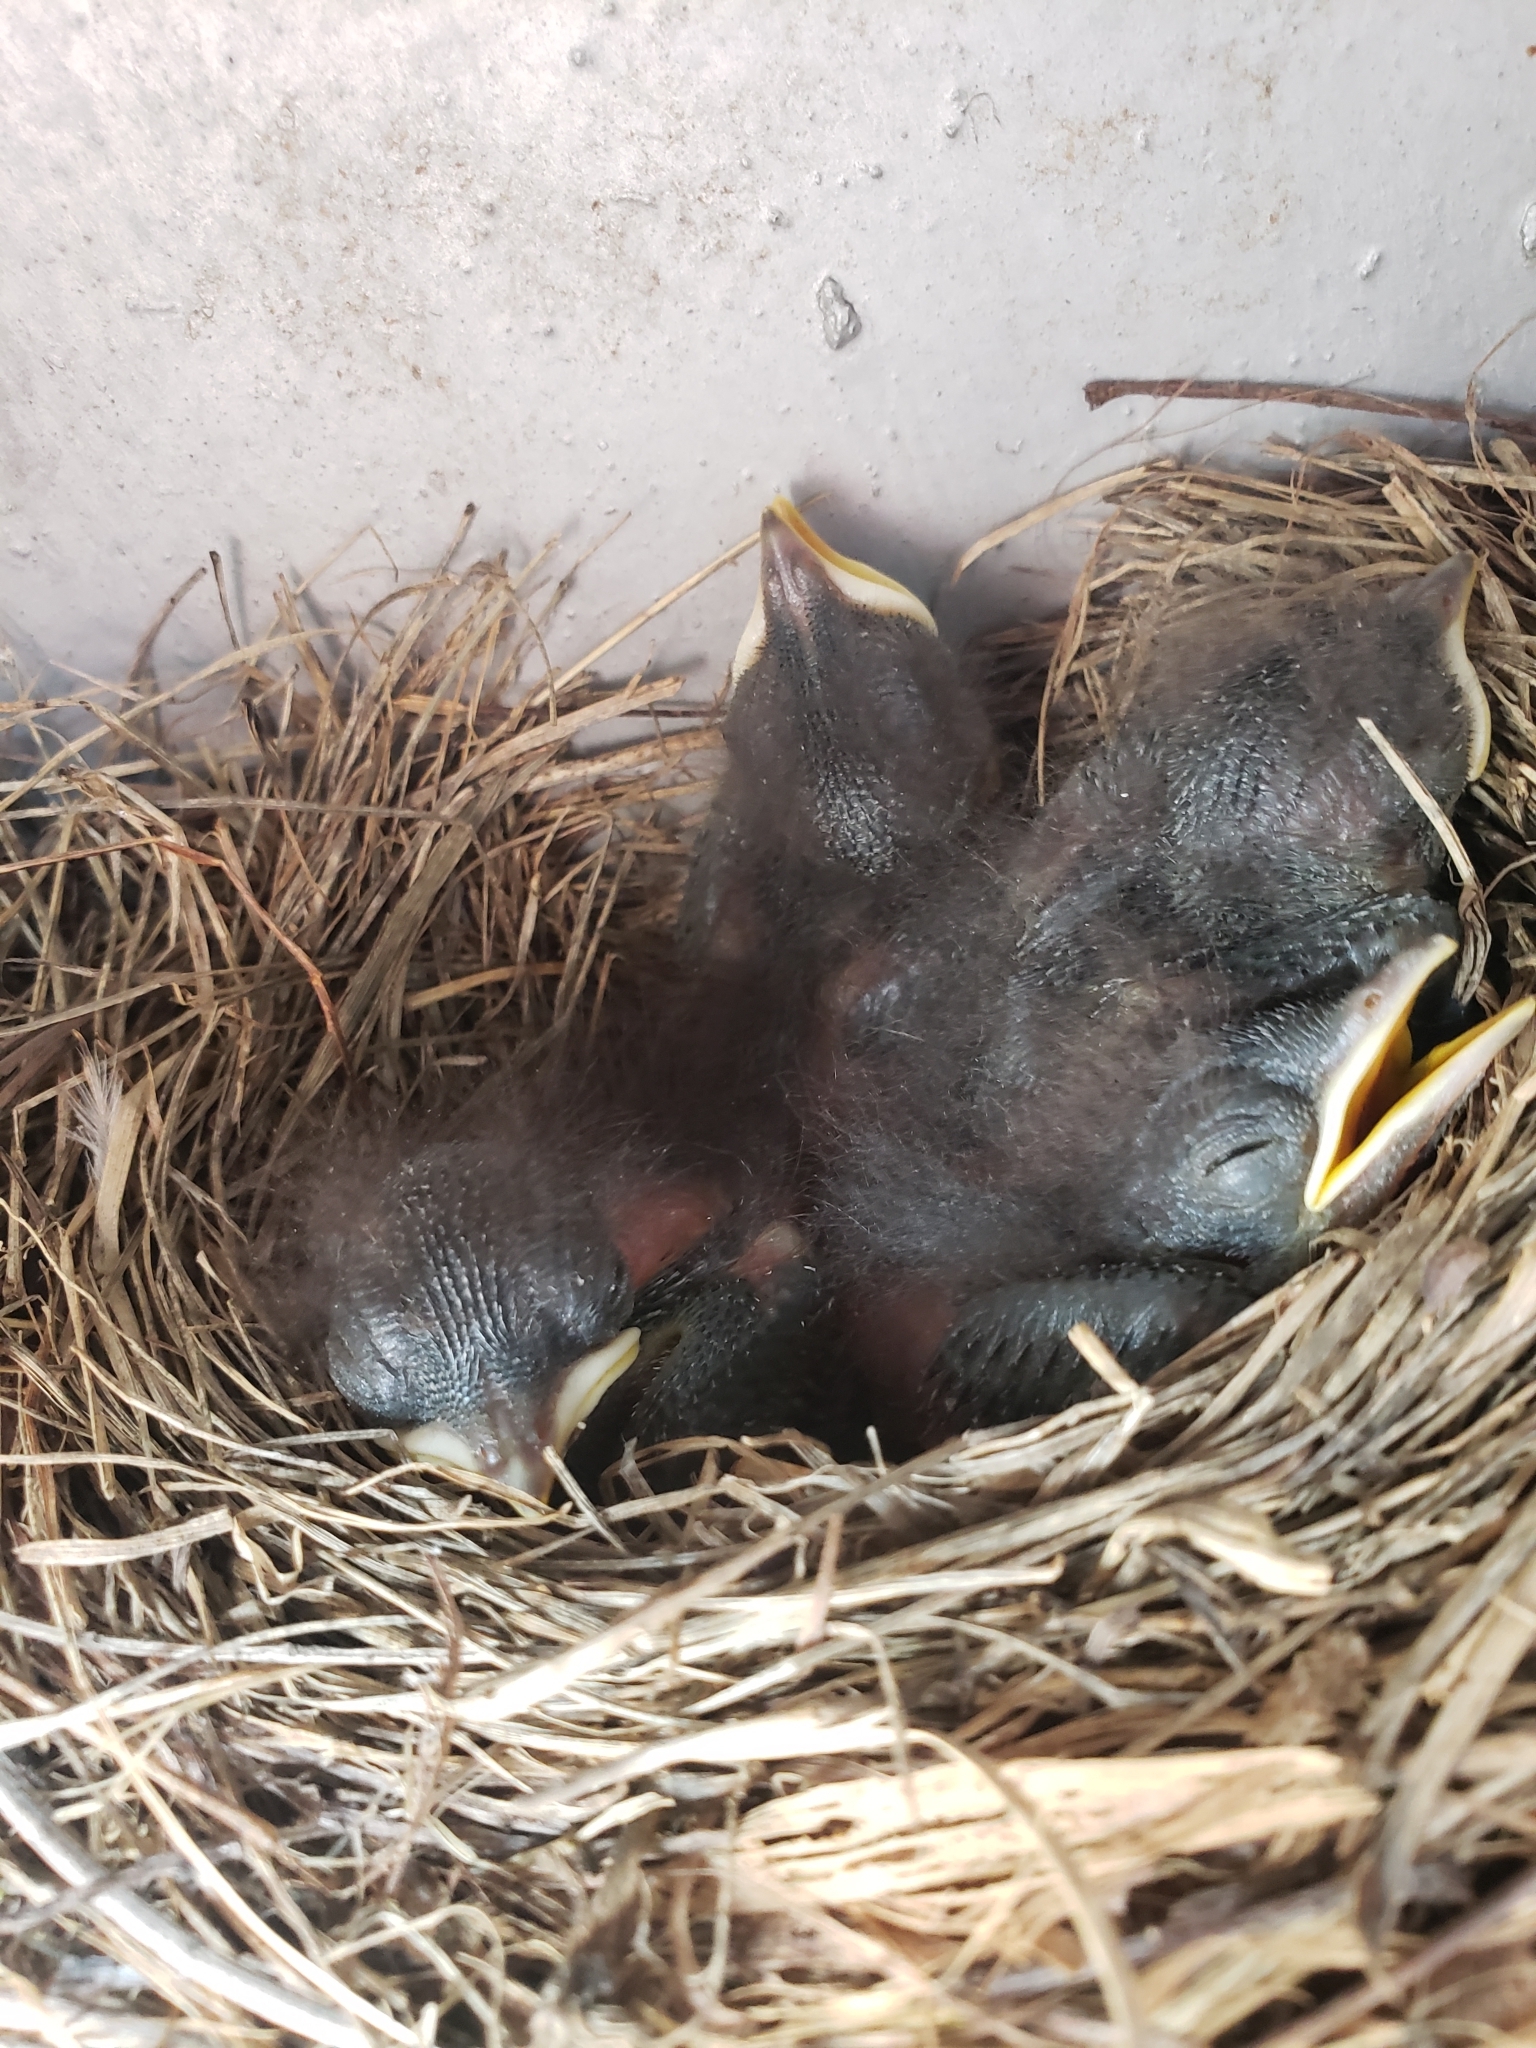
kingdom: Animalia
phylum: Chordata
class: Aves
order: Passeriformes
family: Turdidae
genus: Sialia
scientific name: Sialia sialis
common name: Eastern bluebird
